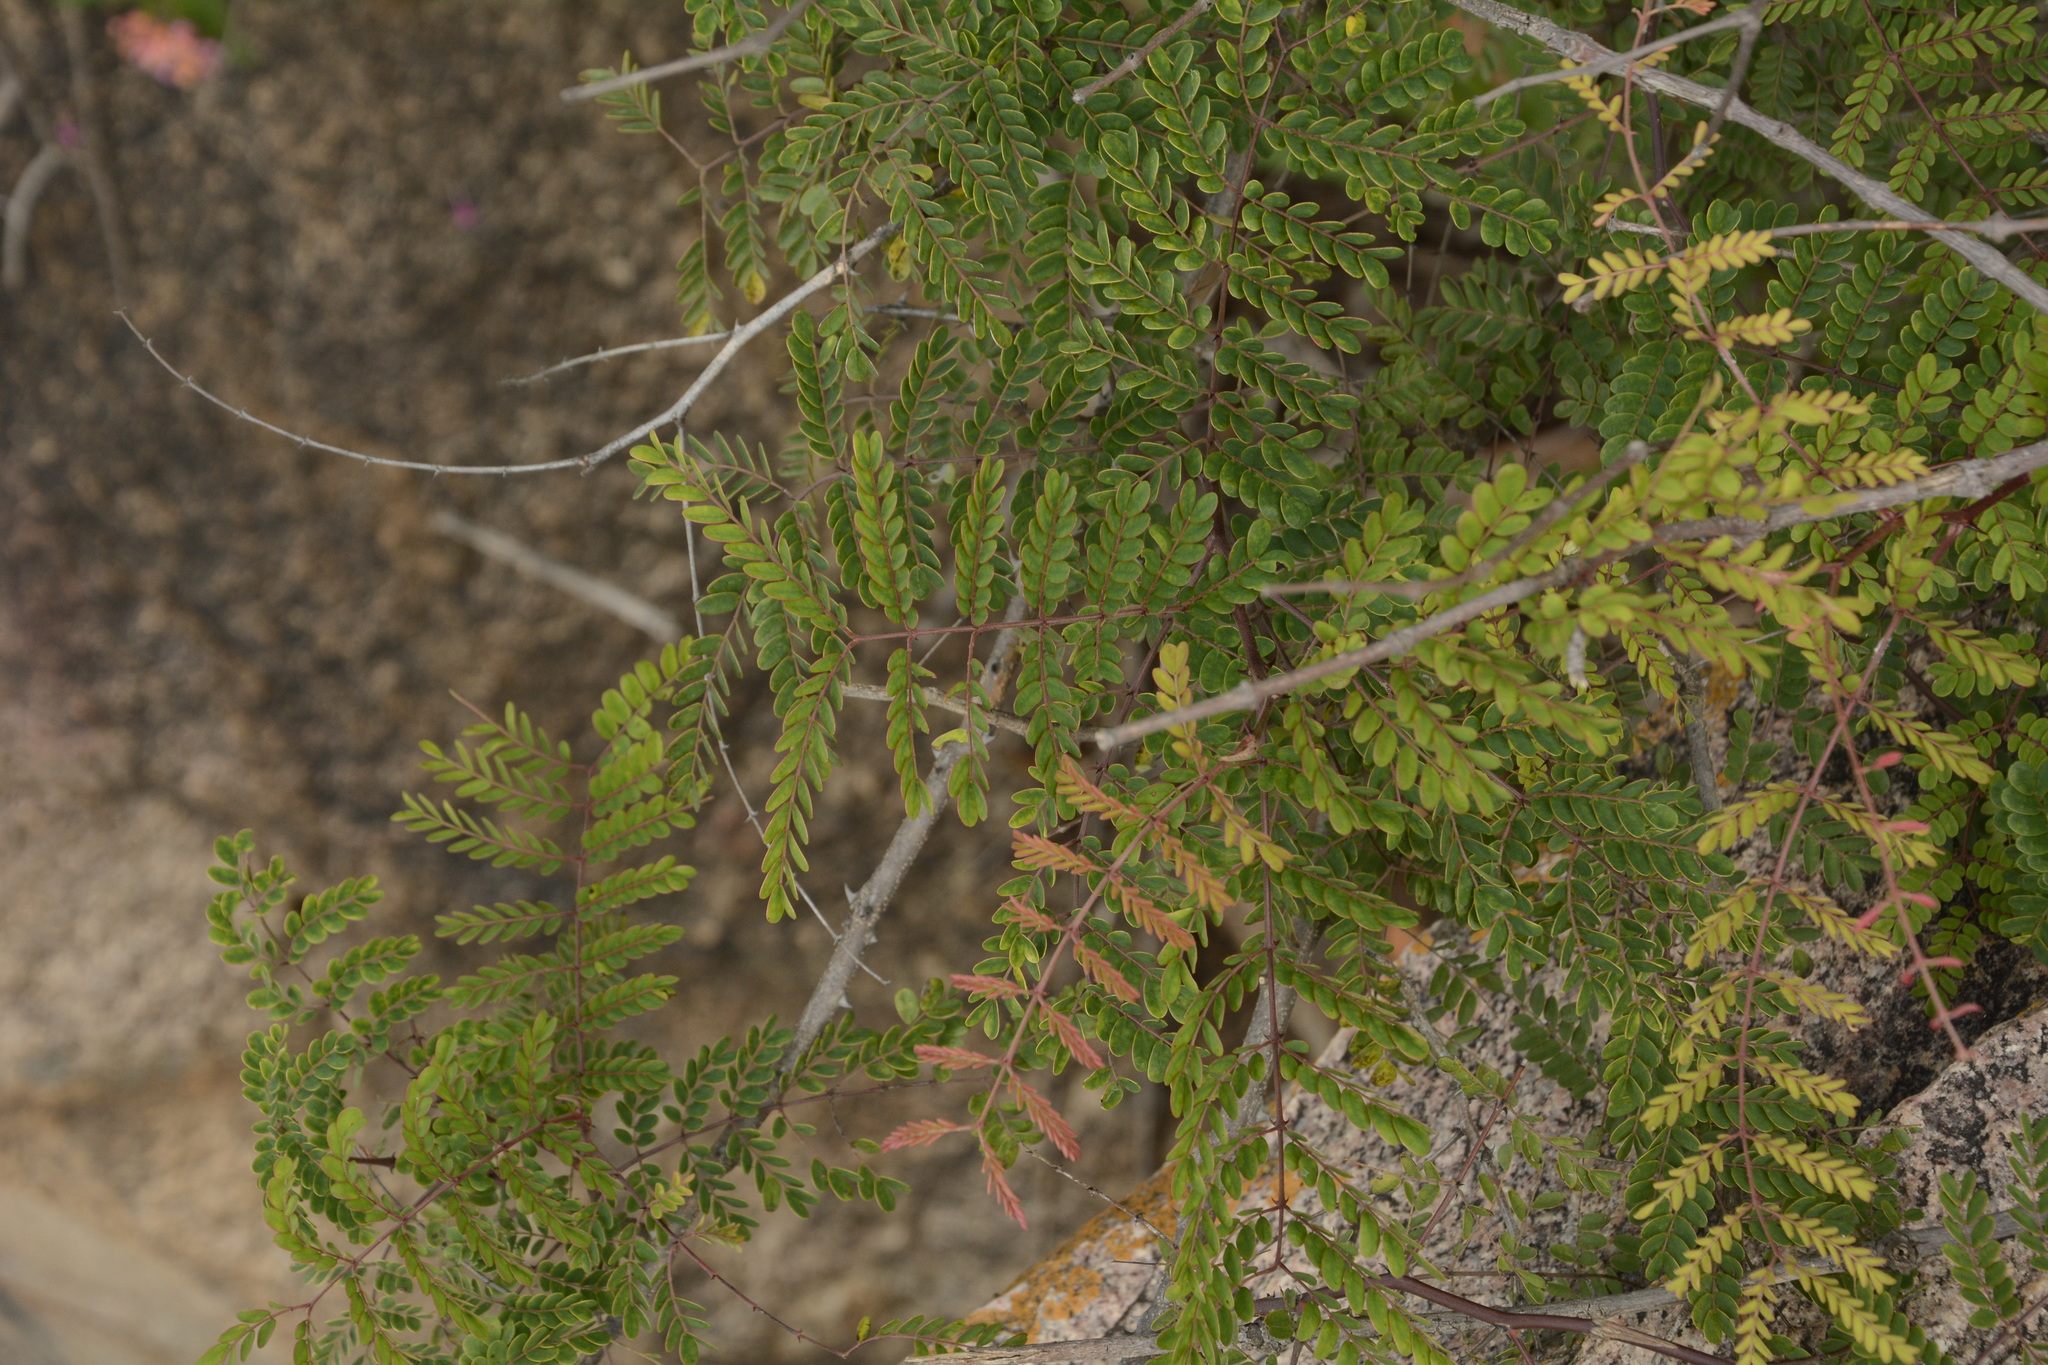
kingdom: Plantae
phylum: Tracheophyta
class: Magnoliopsida
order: Fabales
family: Fabaceae
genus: Pterolobium
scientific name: Pterolobium hexapetalum
